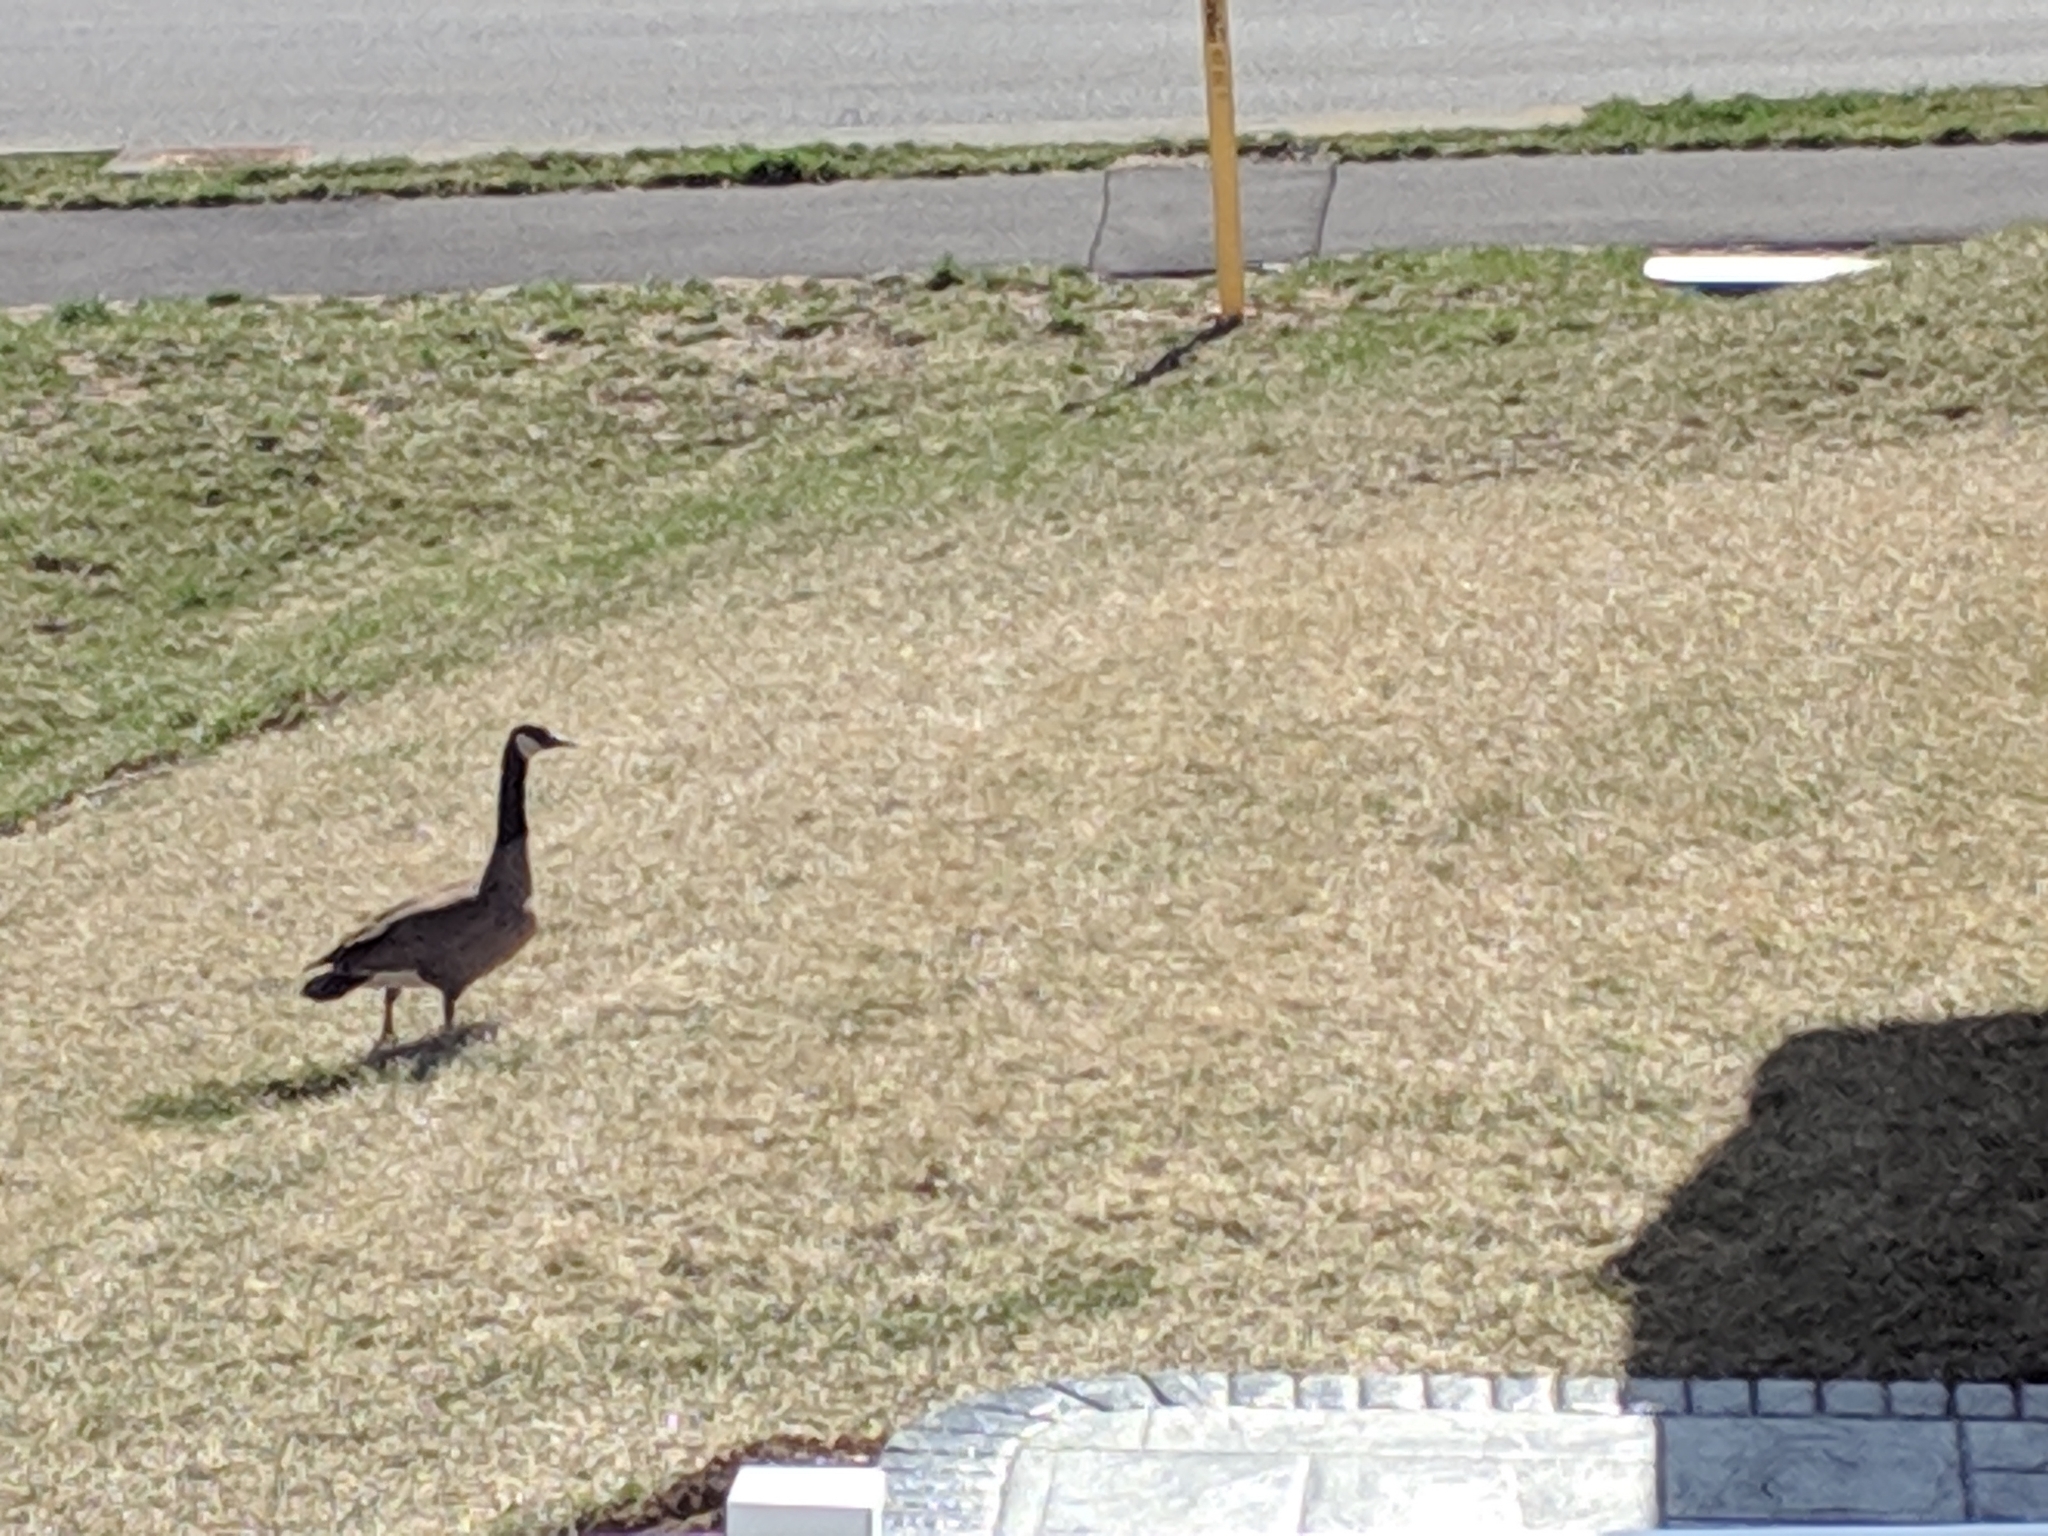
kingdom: Animalia
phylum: Chordata
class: Aves
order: Anseriformes
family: Anatidae
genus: Branta
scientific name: Branta canadensis
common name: Canada goose
